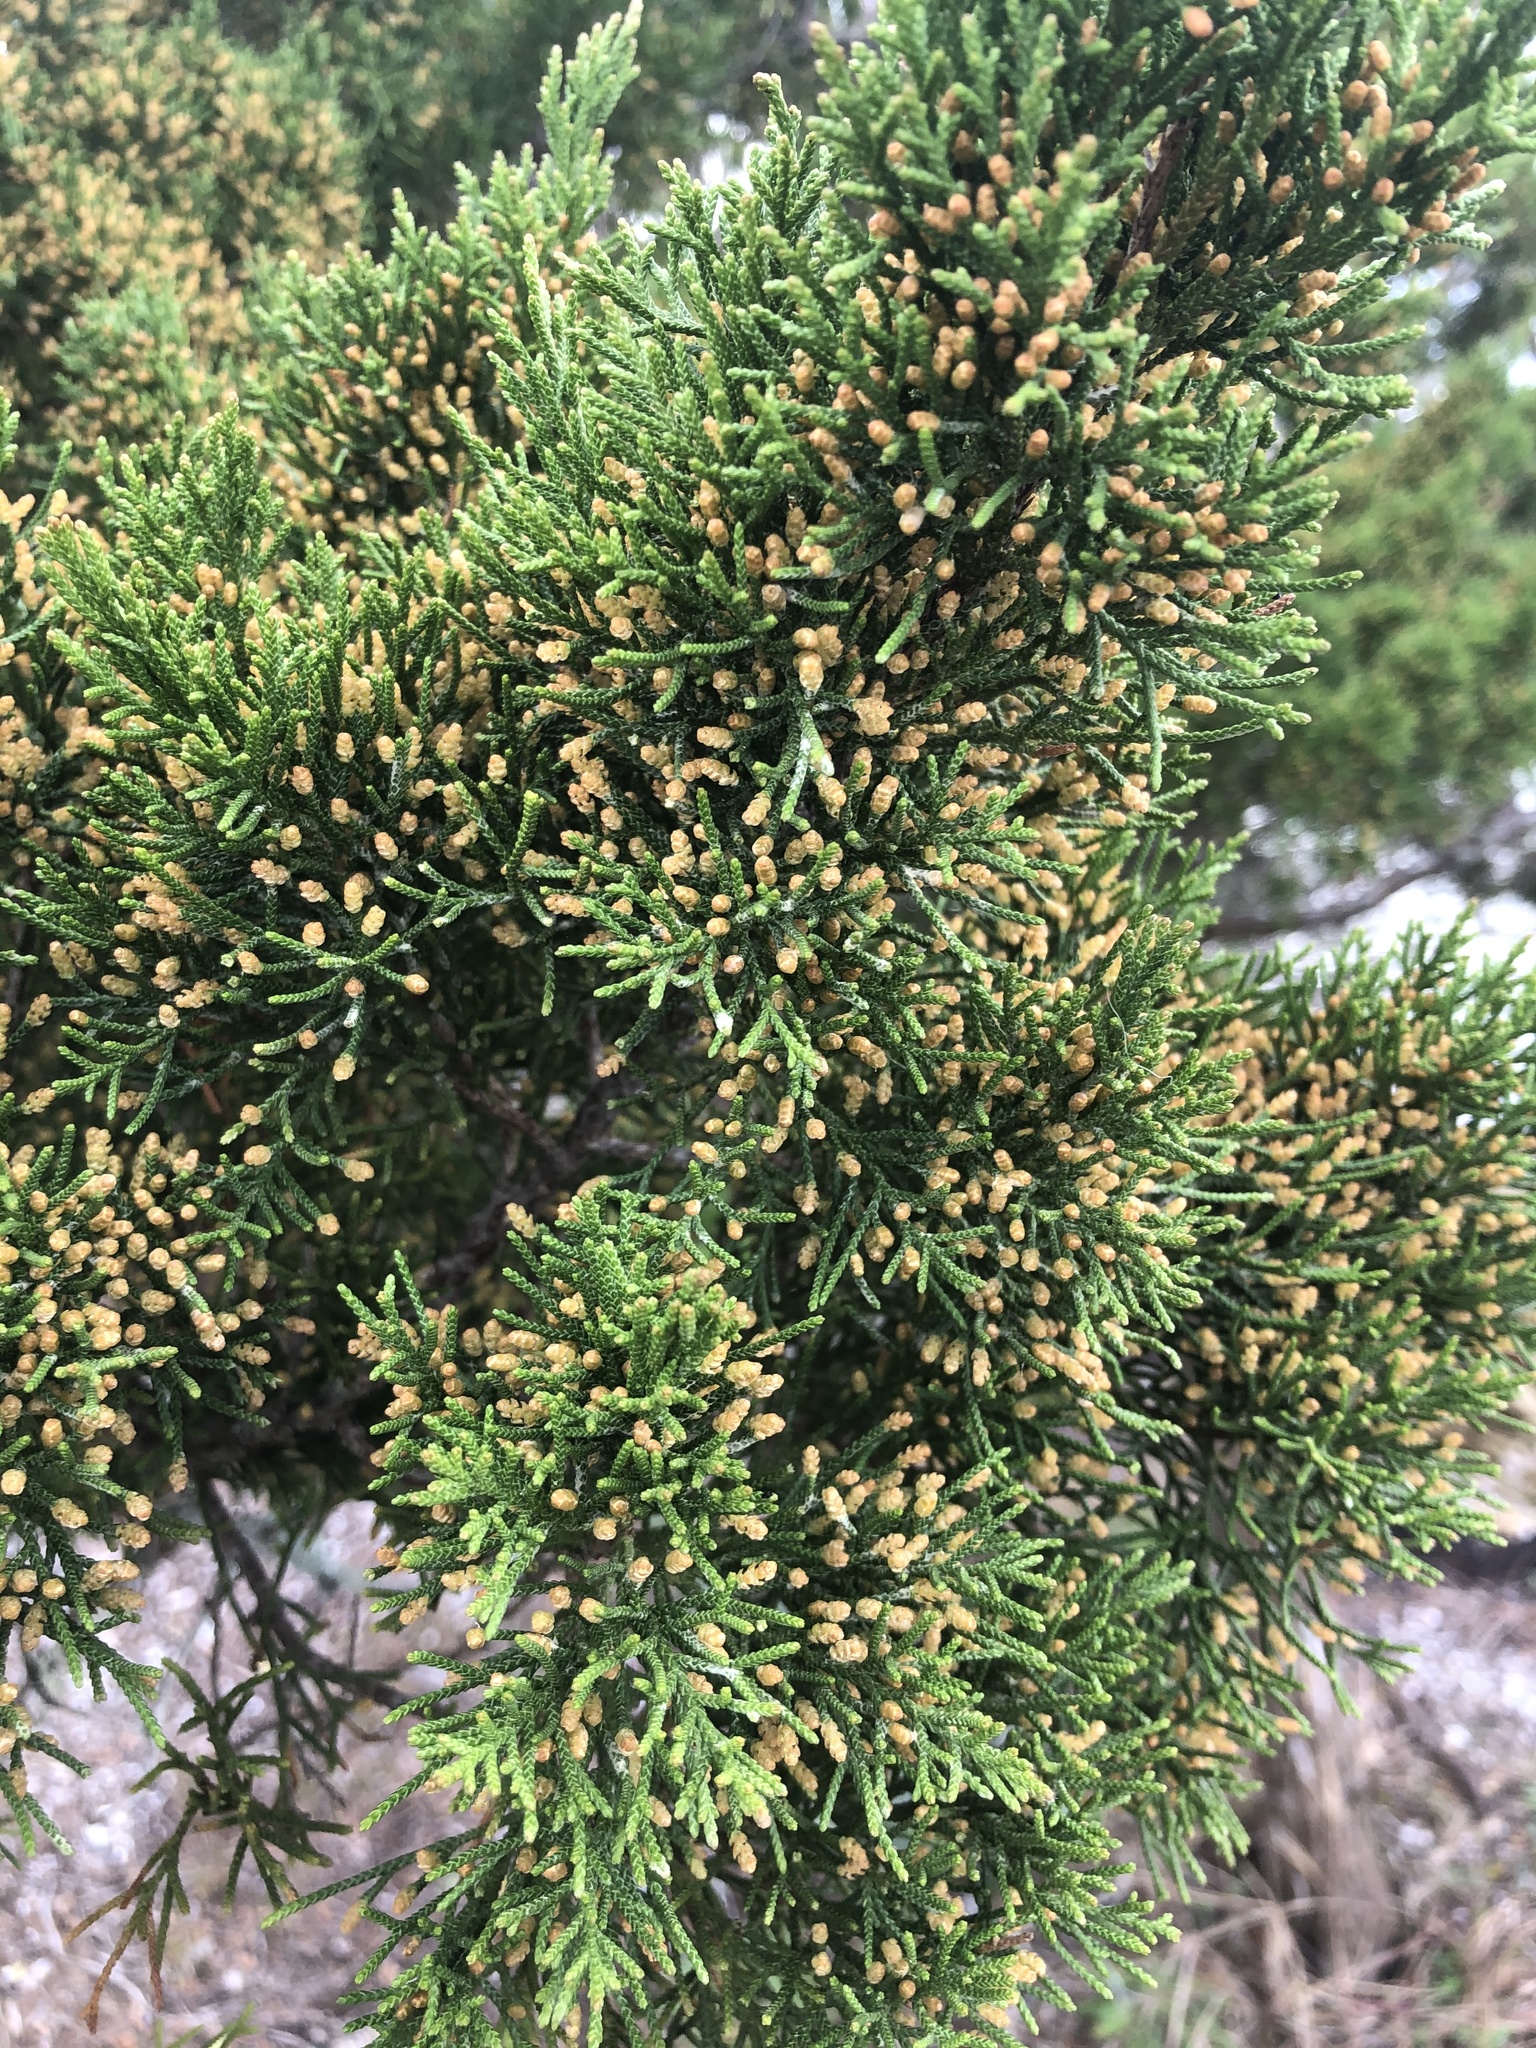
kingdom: Plantae
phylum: Tracheophyta
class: Pinopsida
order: Pinales
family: Cupressaceae
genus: Juniperus
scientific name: Juniperus virginiana
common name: Red juniper
